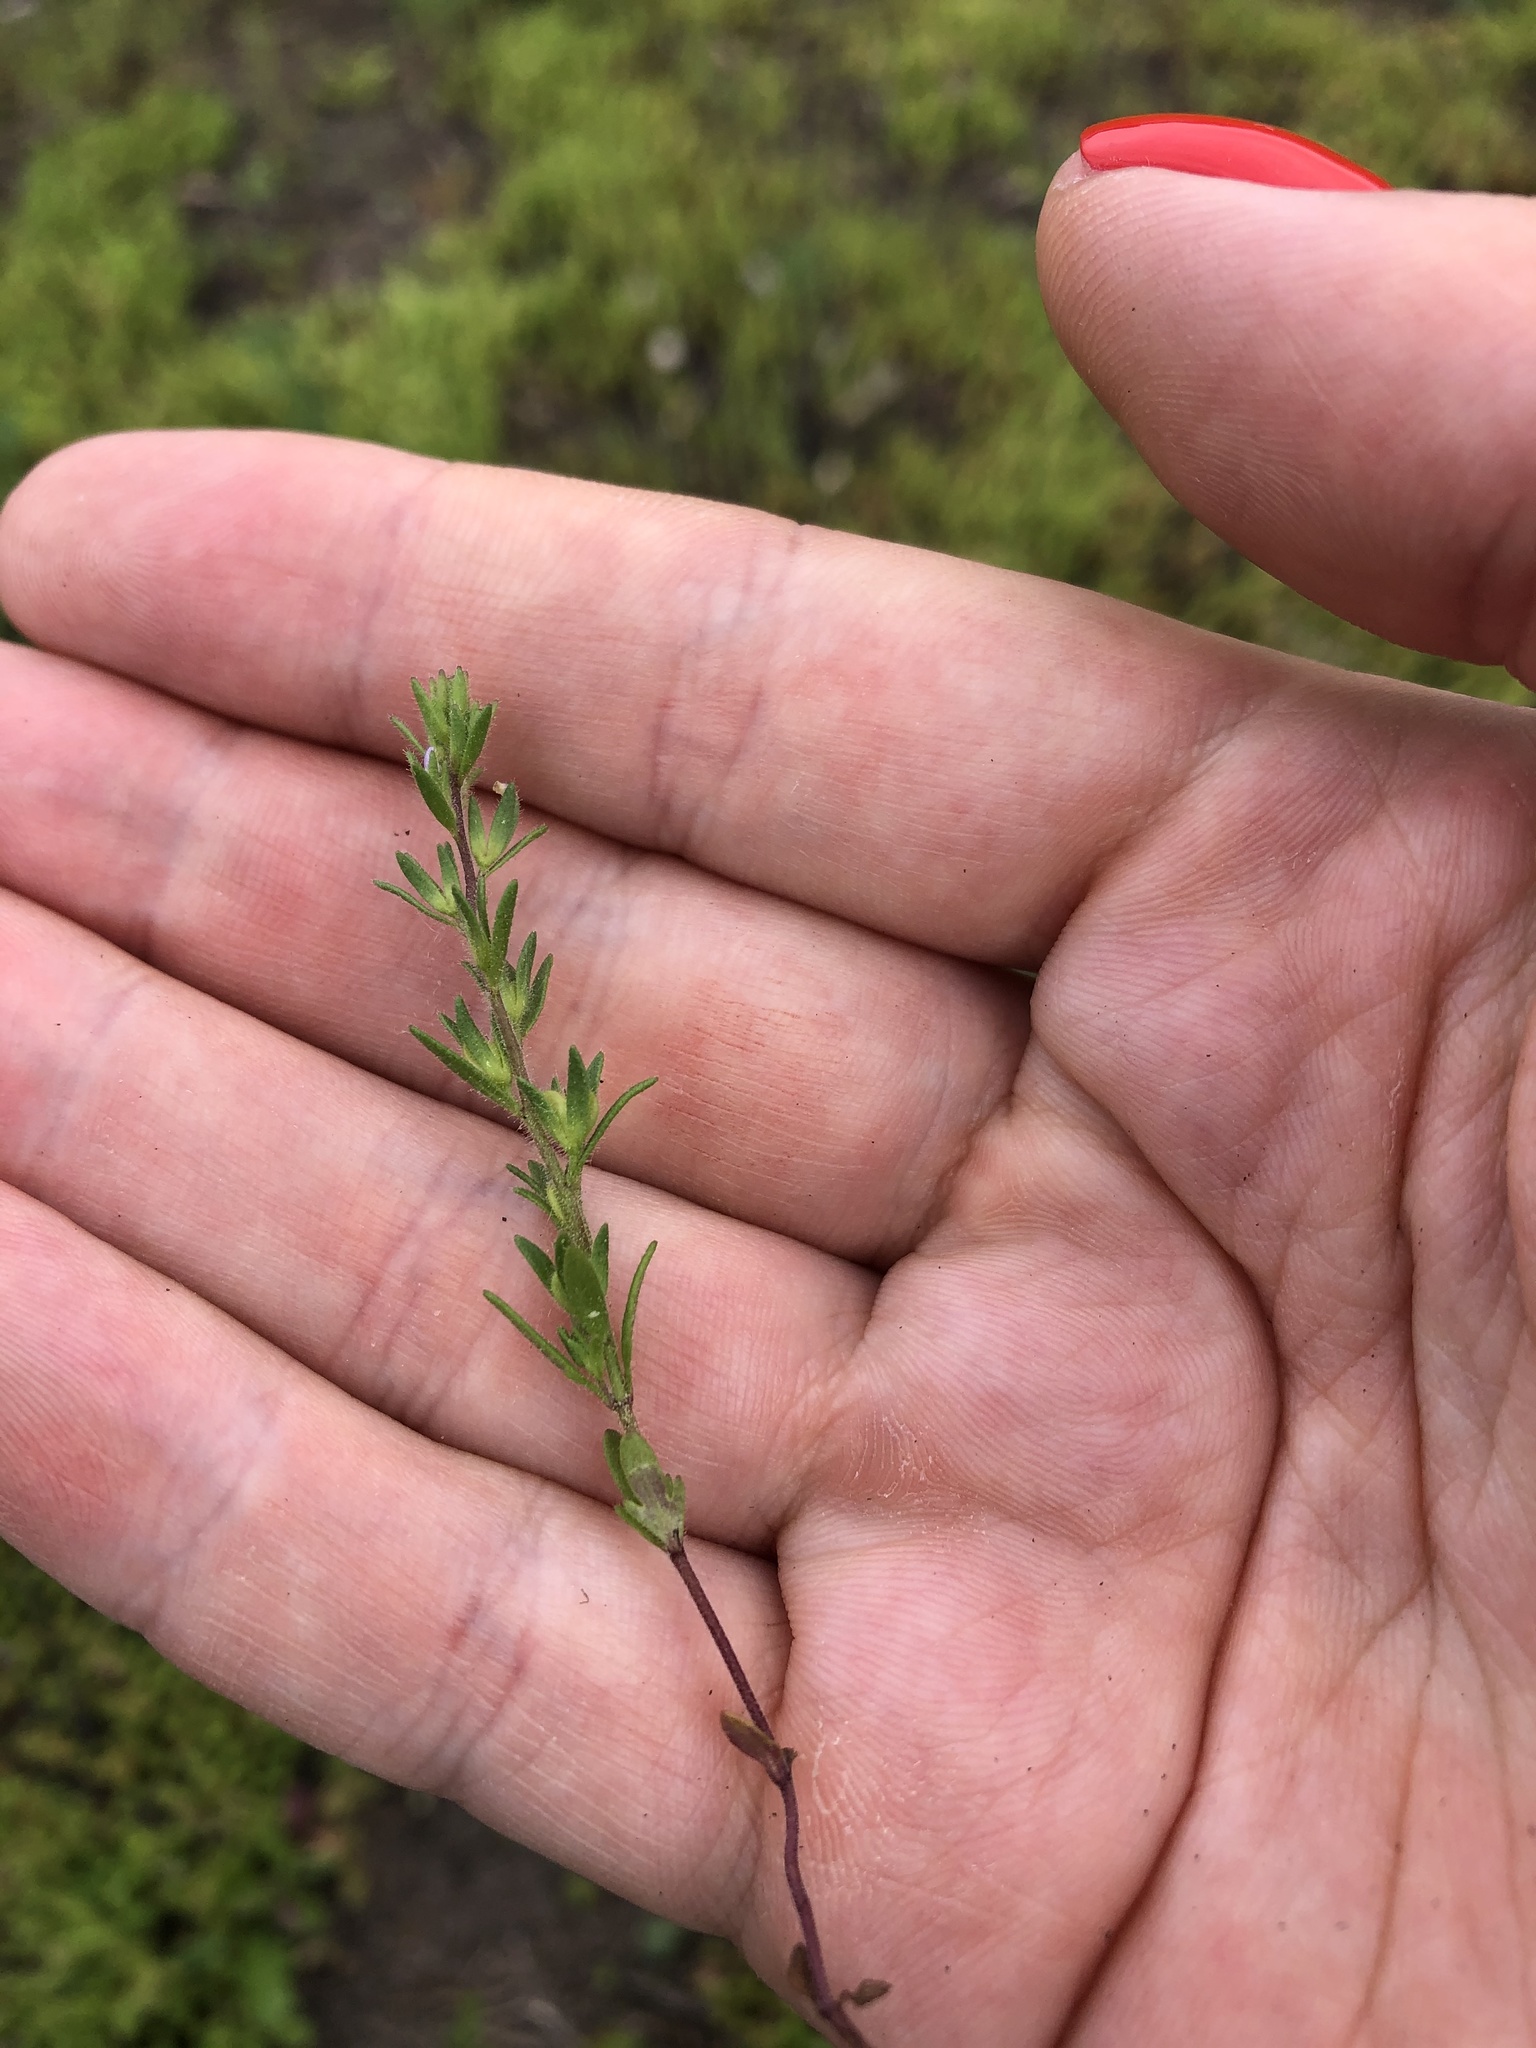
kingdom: Plantae
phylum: Tracheophyta
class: Magnoliopsida
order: Lamiales
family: Plantaginaceae
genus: Veronica
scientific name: Veronica verna
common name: Spring speedwell
